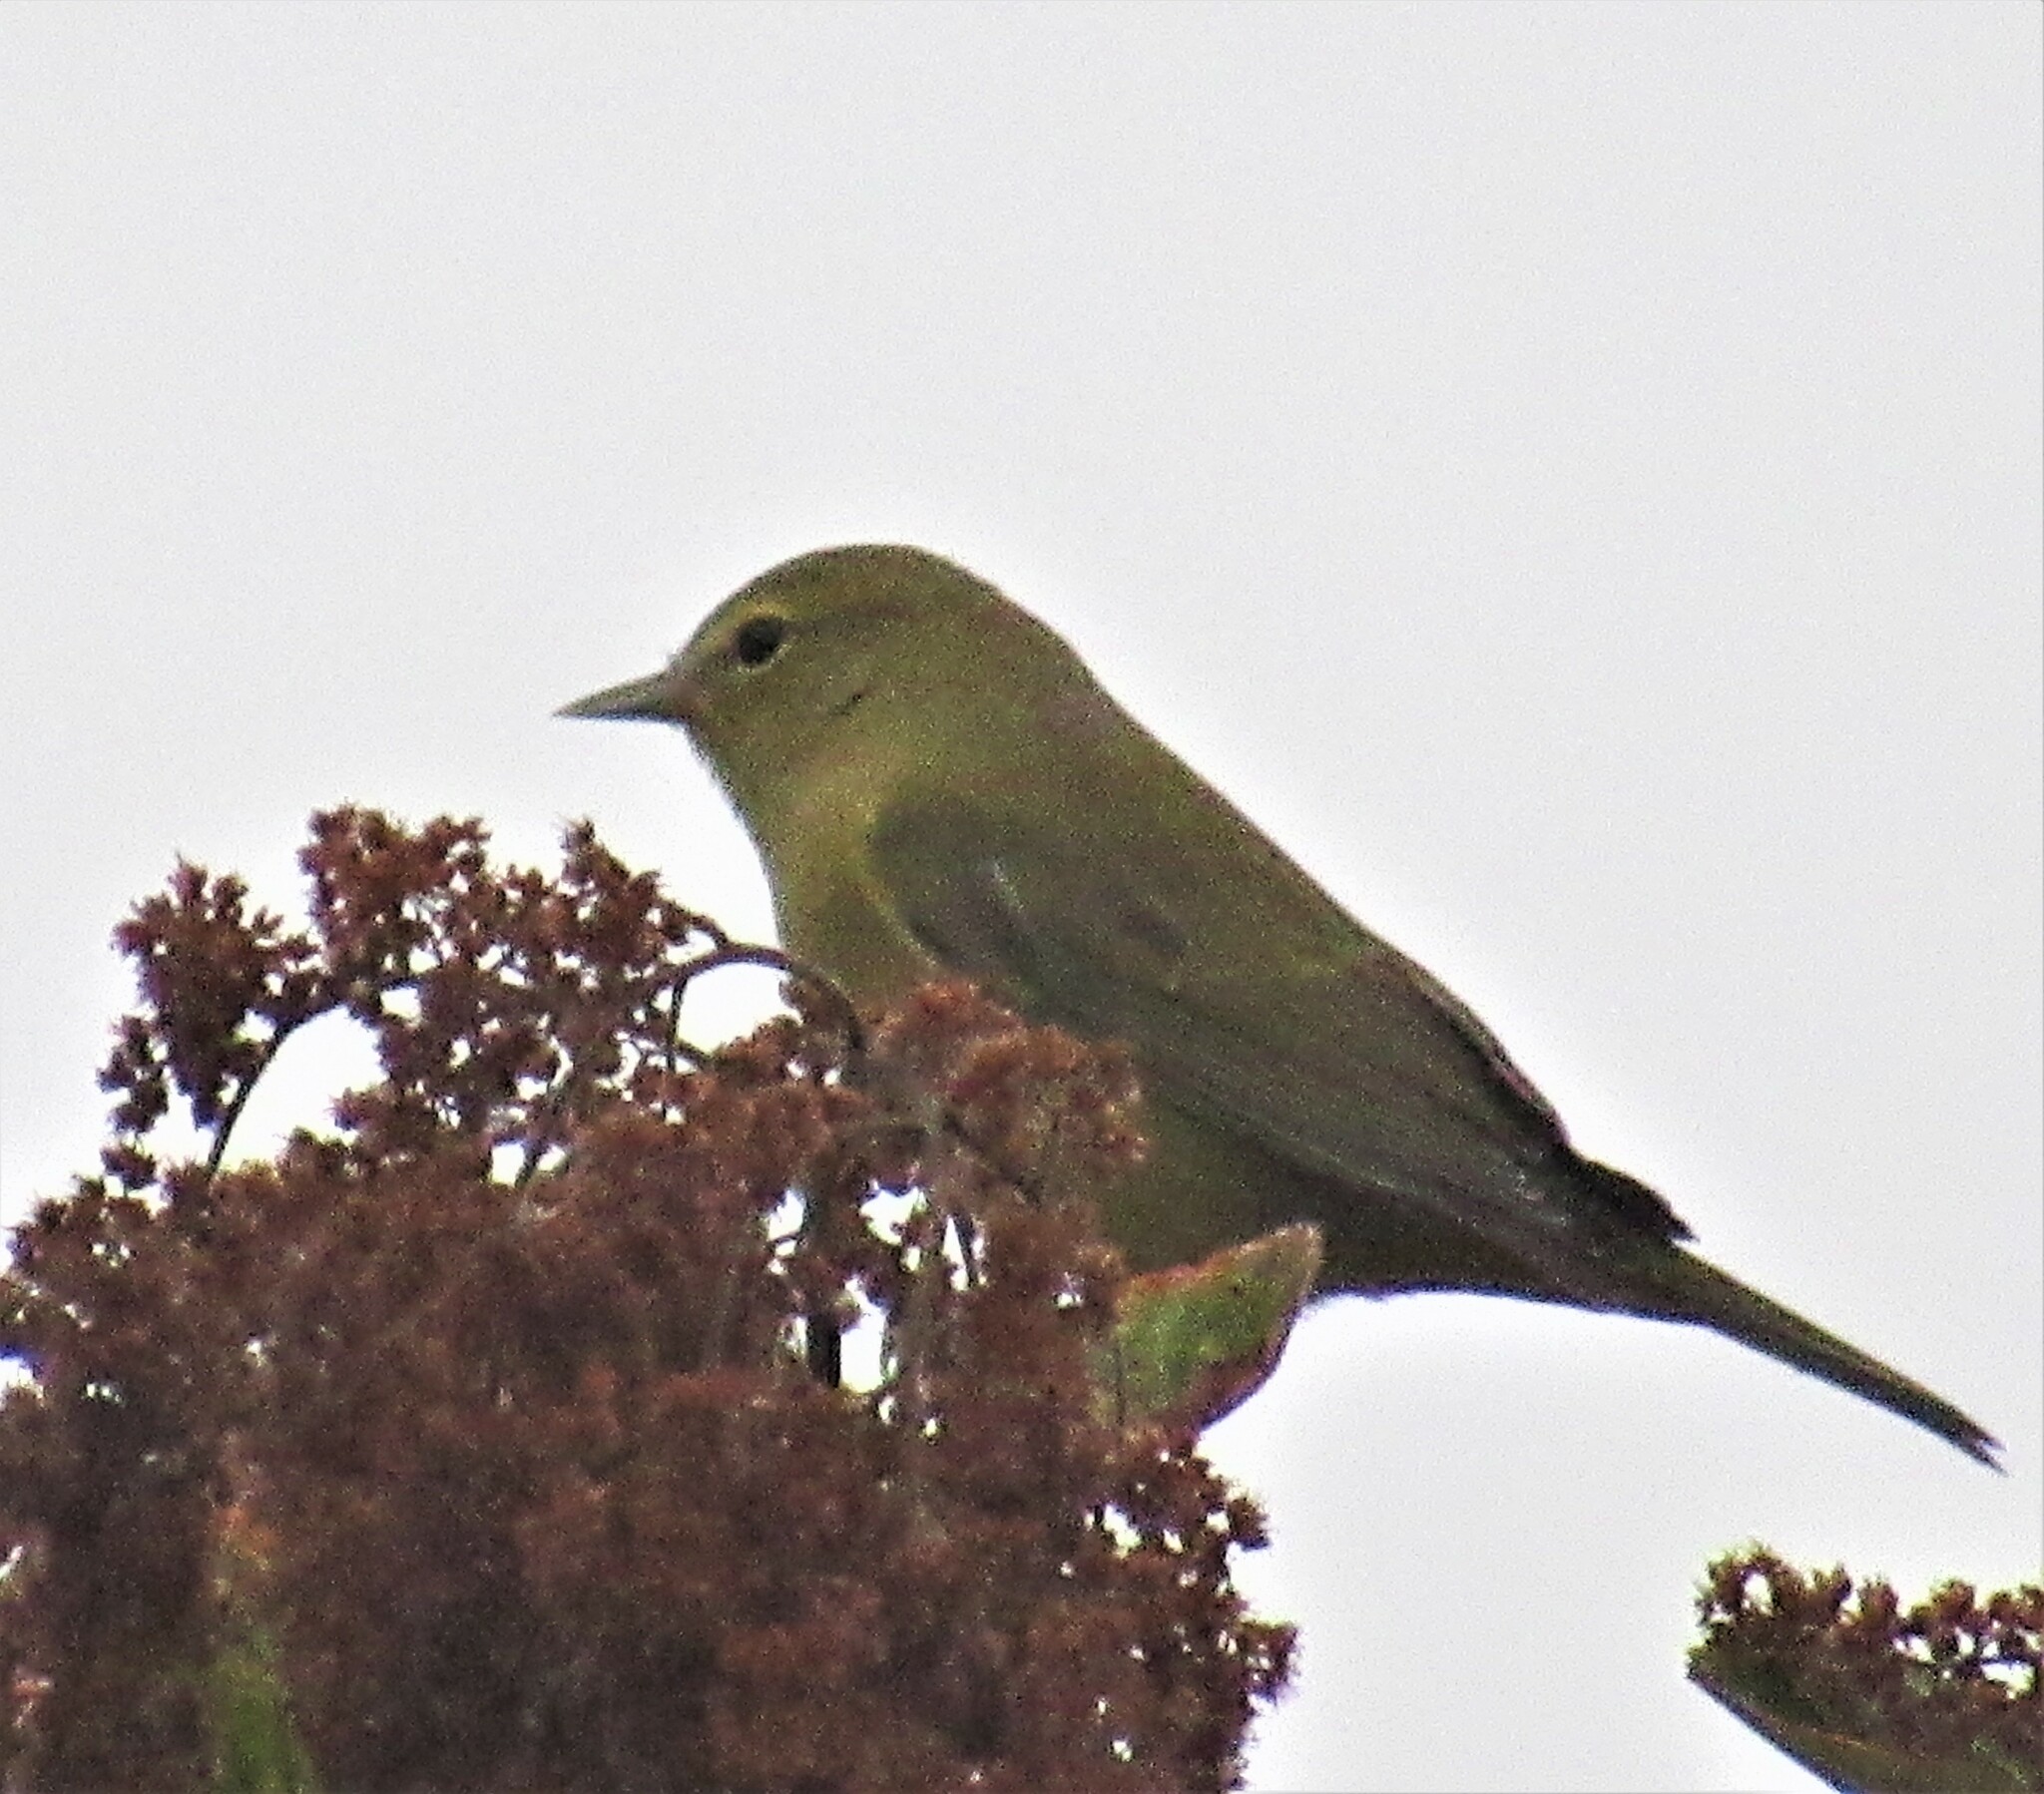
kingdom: Animalia
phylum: Chordata
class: Aves
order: Passeriformes
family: Parulidae
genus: Leiothlypis
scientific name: Leiothlypis celata
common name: Orange-crowned warbler
